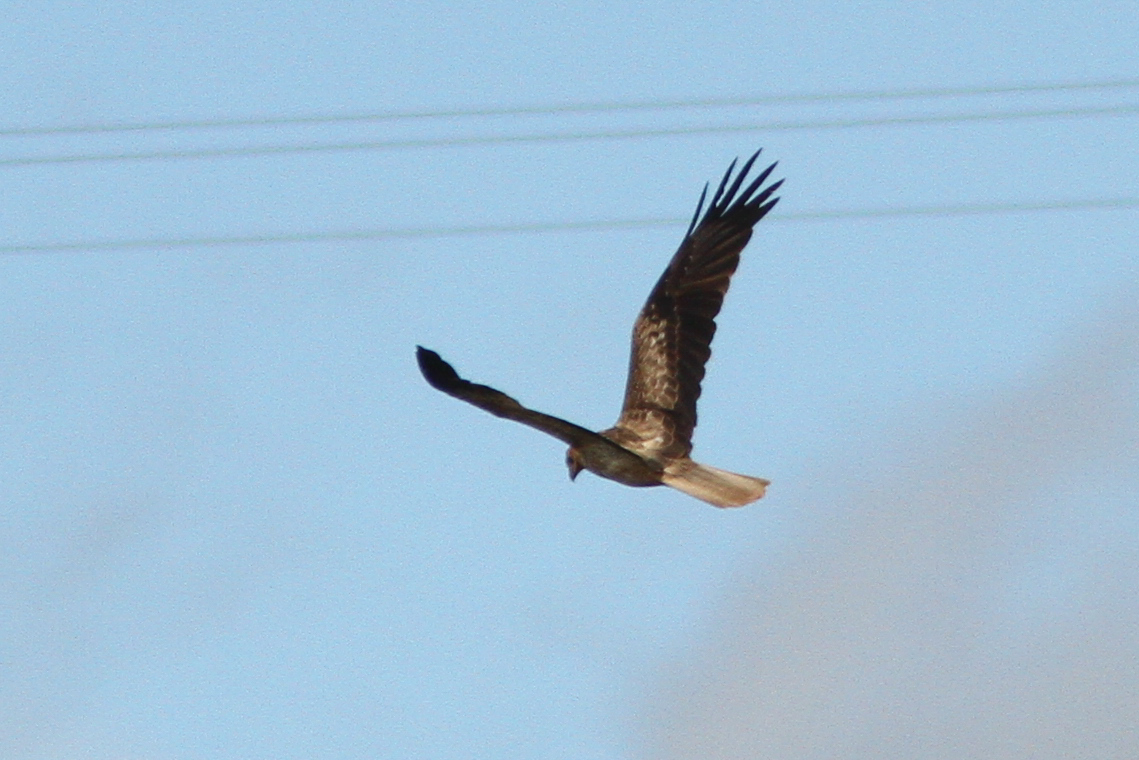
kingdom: Animalia
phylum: Chordata
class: Aves
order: Accipitriformes
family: Accipitridae
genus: Haliastur
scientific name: Haliastur sphenurus
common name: Whistling kite
